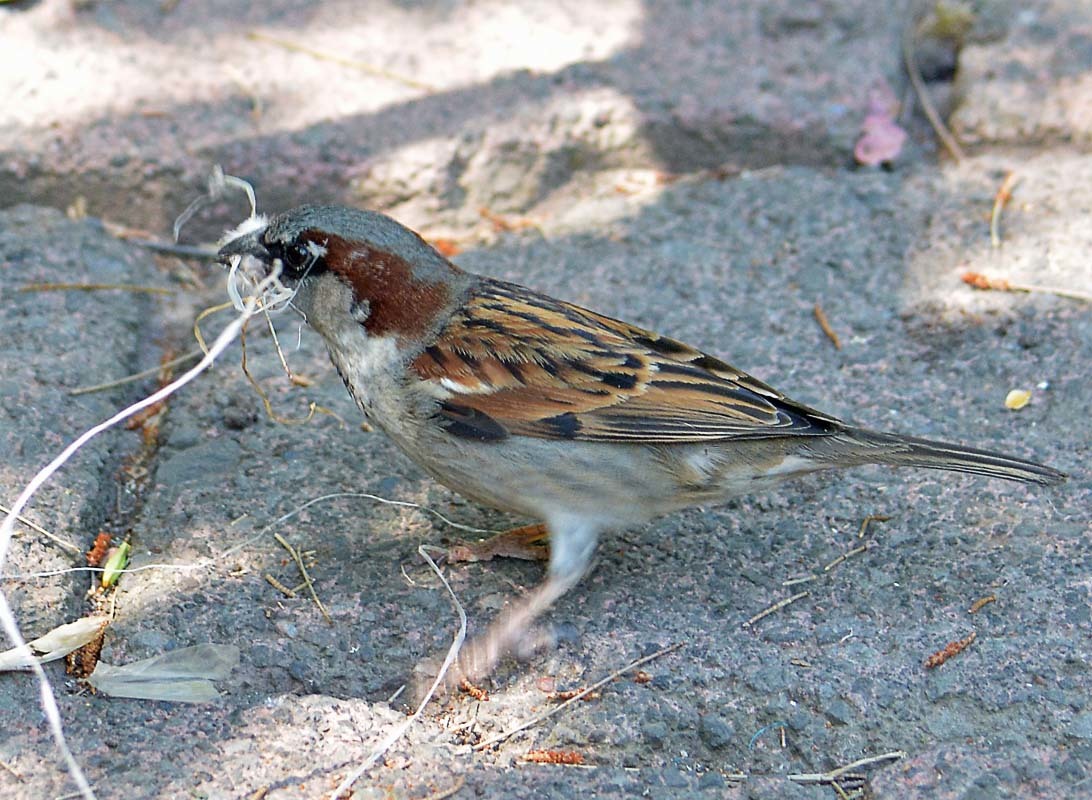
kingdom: Animalia
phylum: Chordata
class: Aves
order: Passeriformes
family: Passeridae
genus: Passer
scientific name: Passer domesticus
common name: House sparrow
